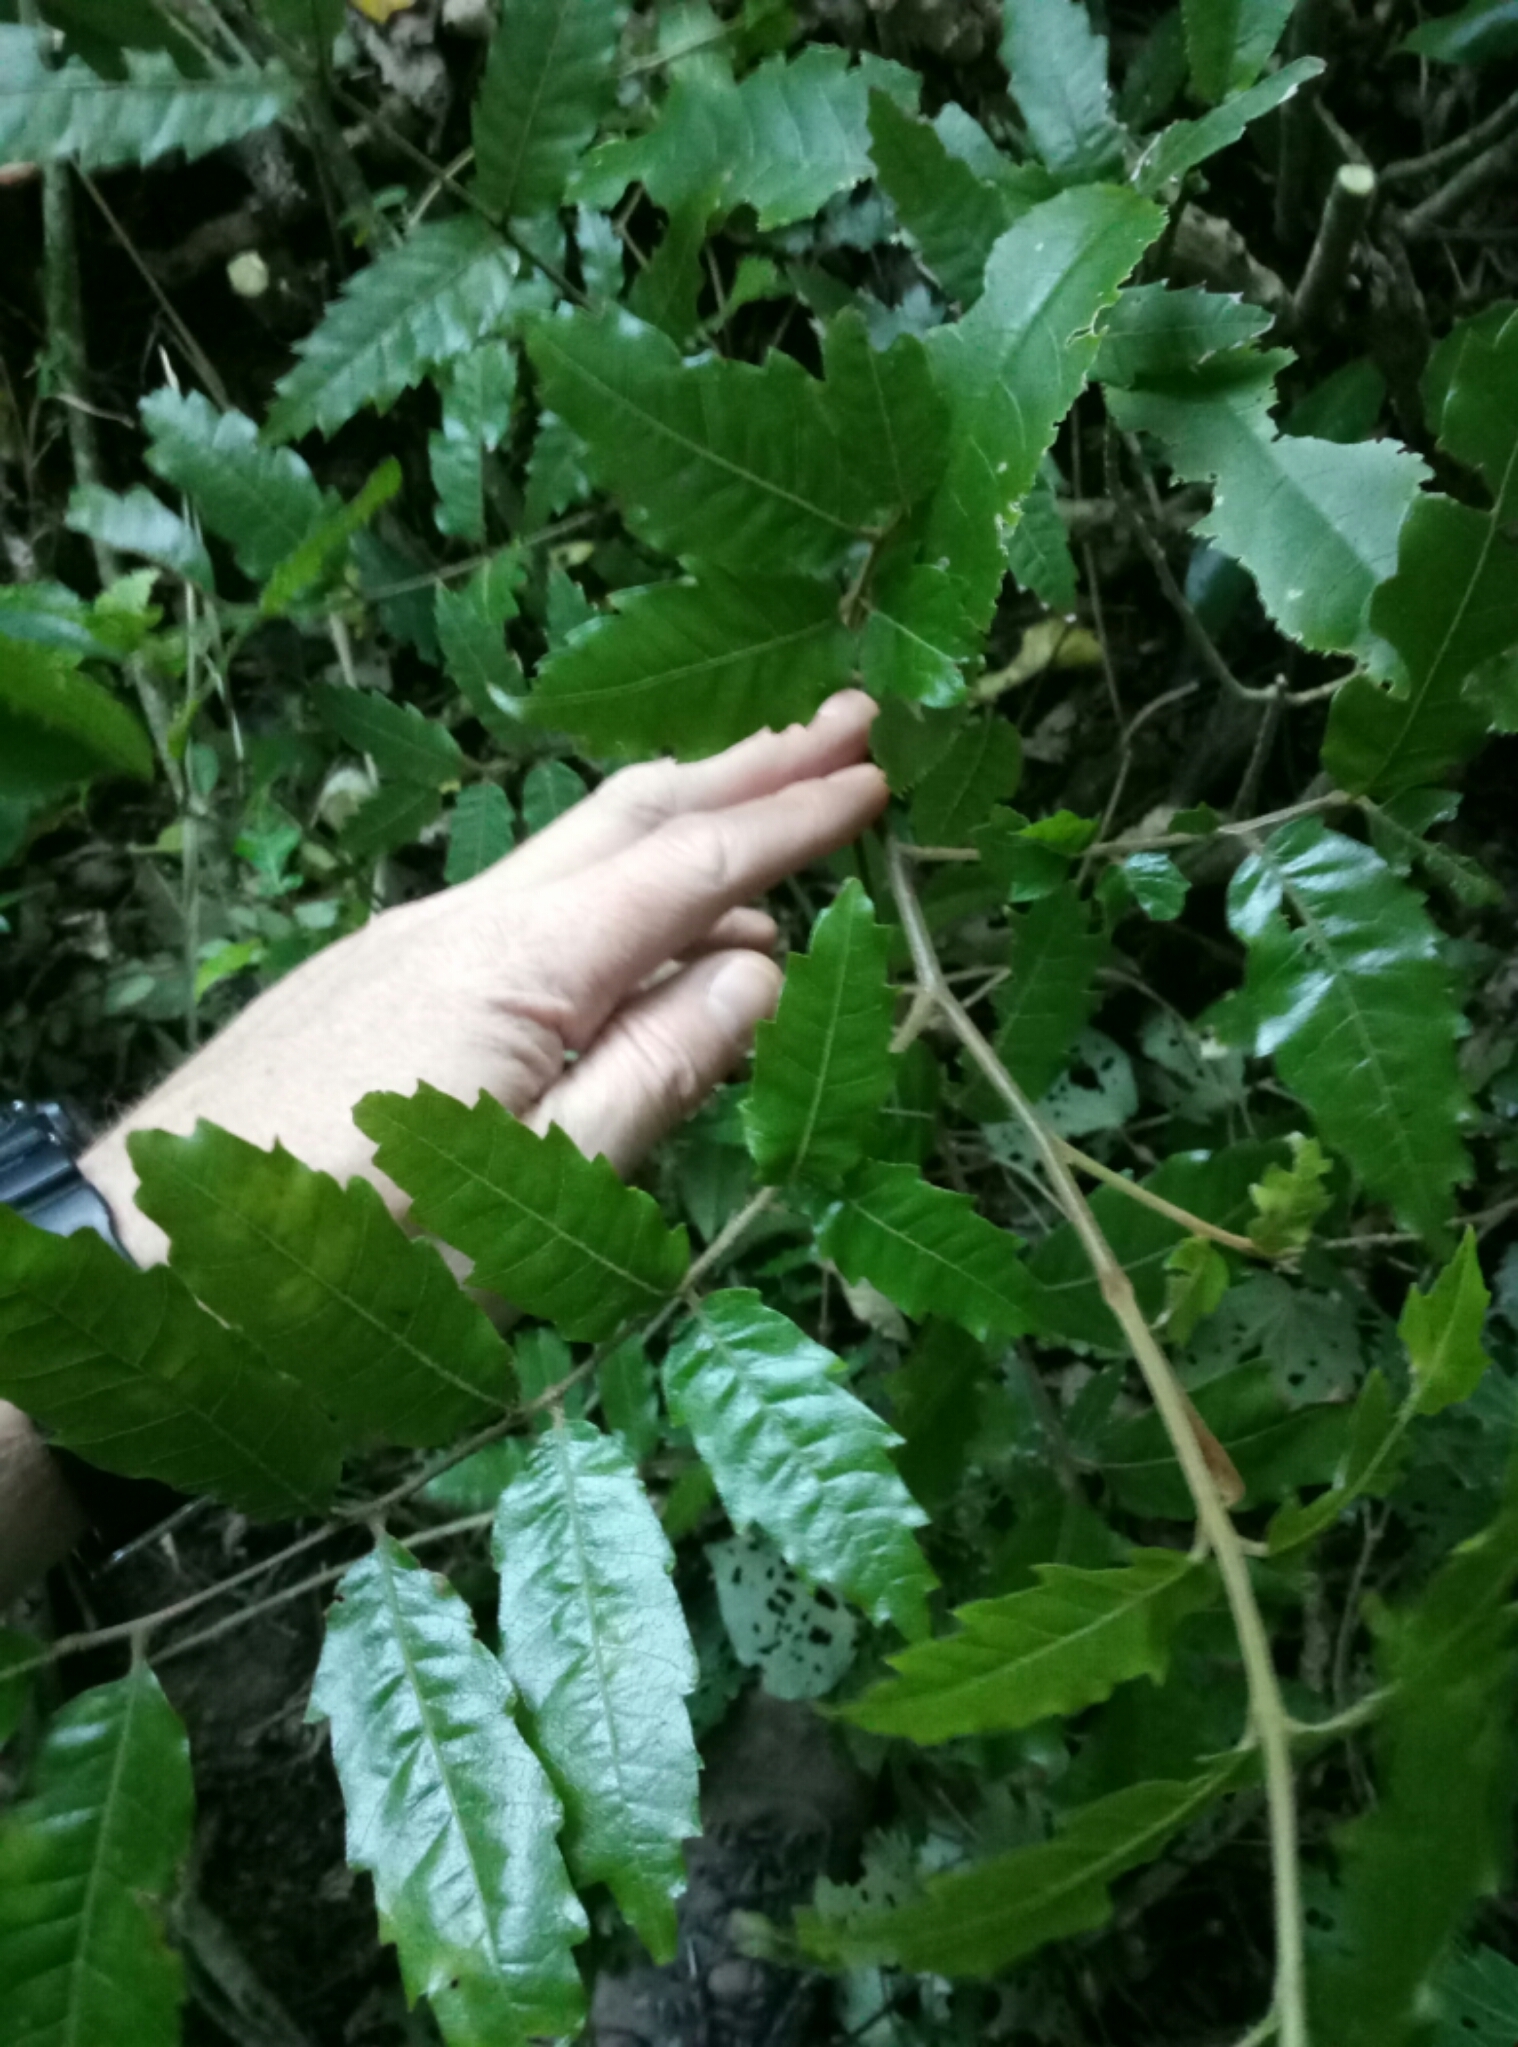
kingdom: Plantae
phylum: Tracheophyta
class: Magnoliopsida
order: Sapindales
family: Sapindaceae
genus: Alectryon
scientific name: Alectryon excelsus
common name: Three kings titoki
